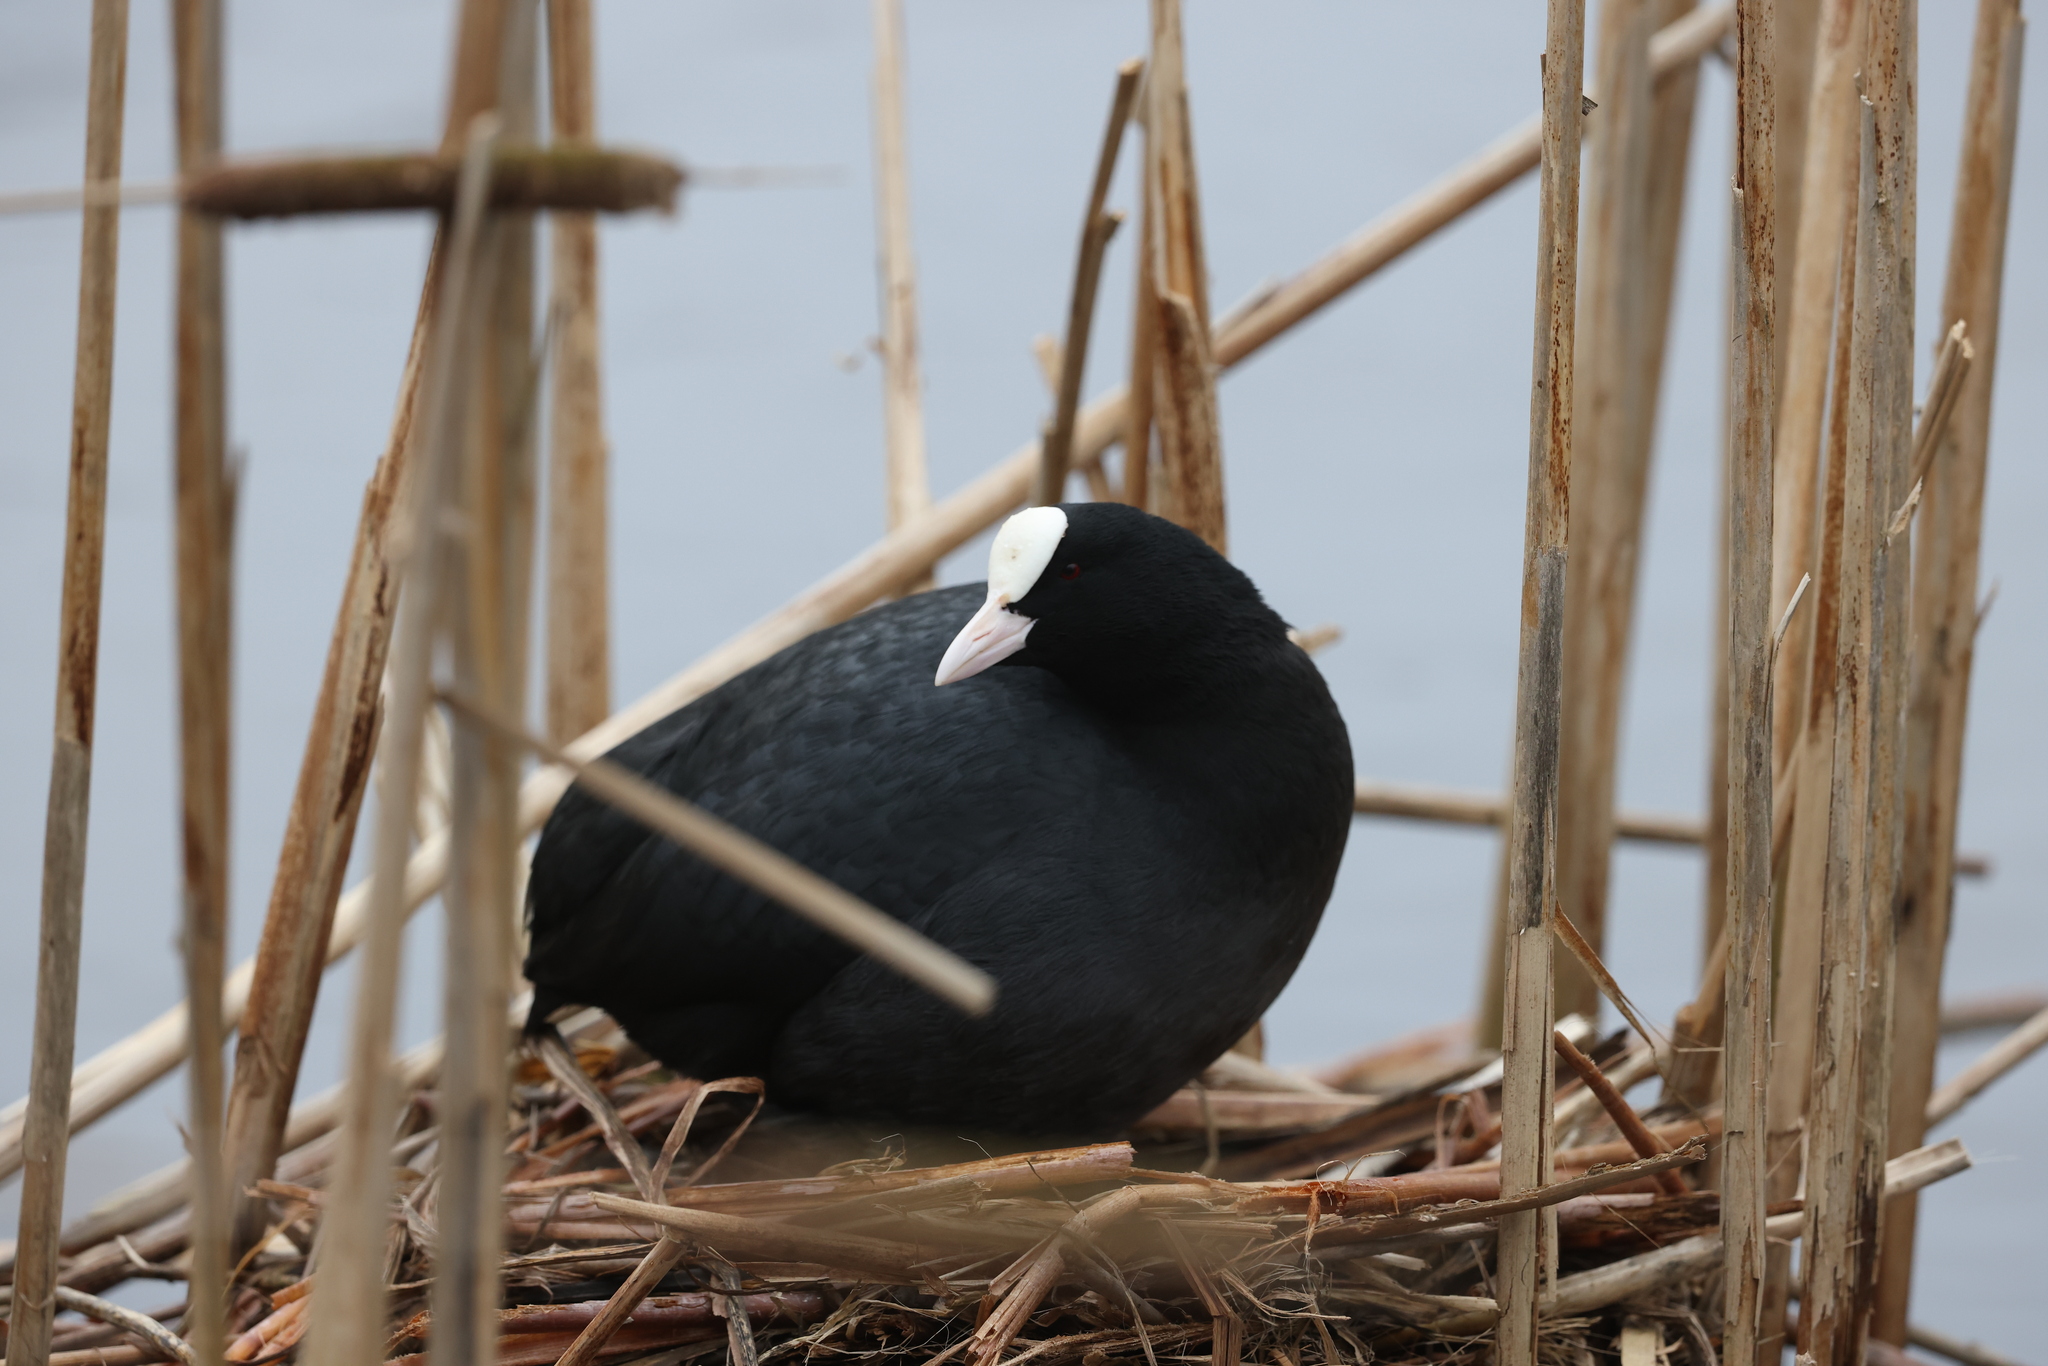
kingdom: Animalia
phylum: Chordata
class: Aves
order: Gruiformes
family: Rallidae
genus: Fulica
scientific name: Fulica atra
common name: Eurasian coot
